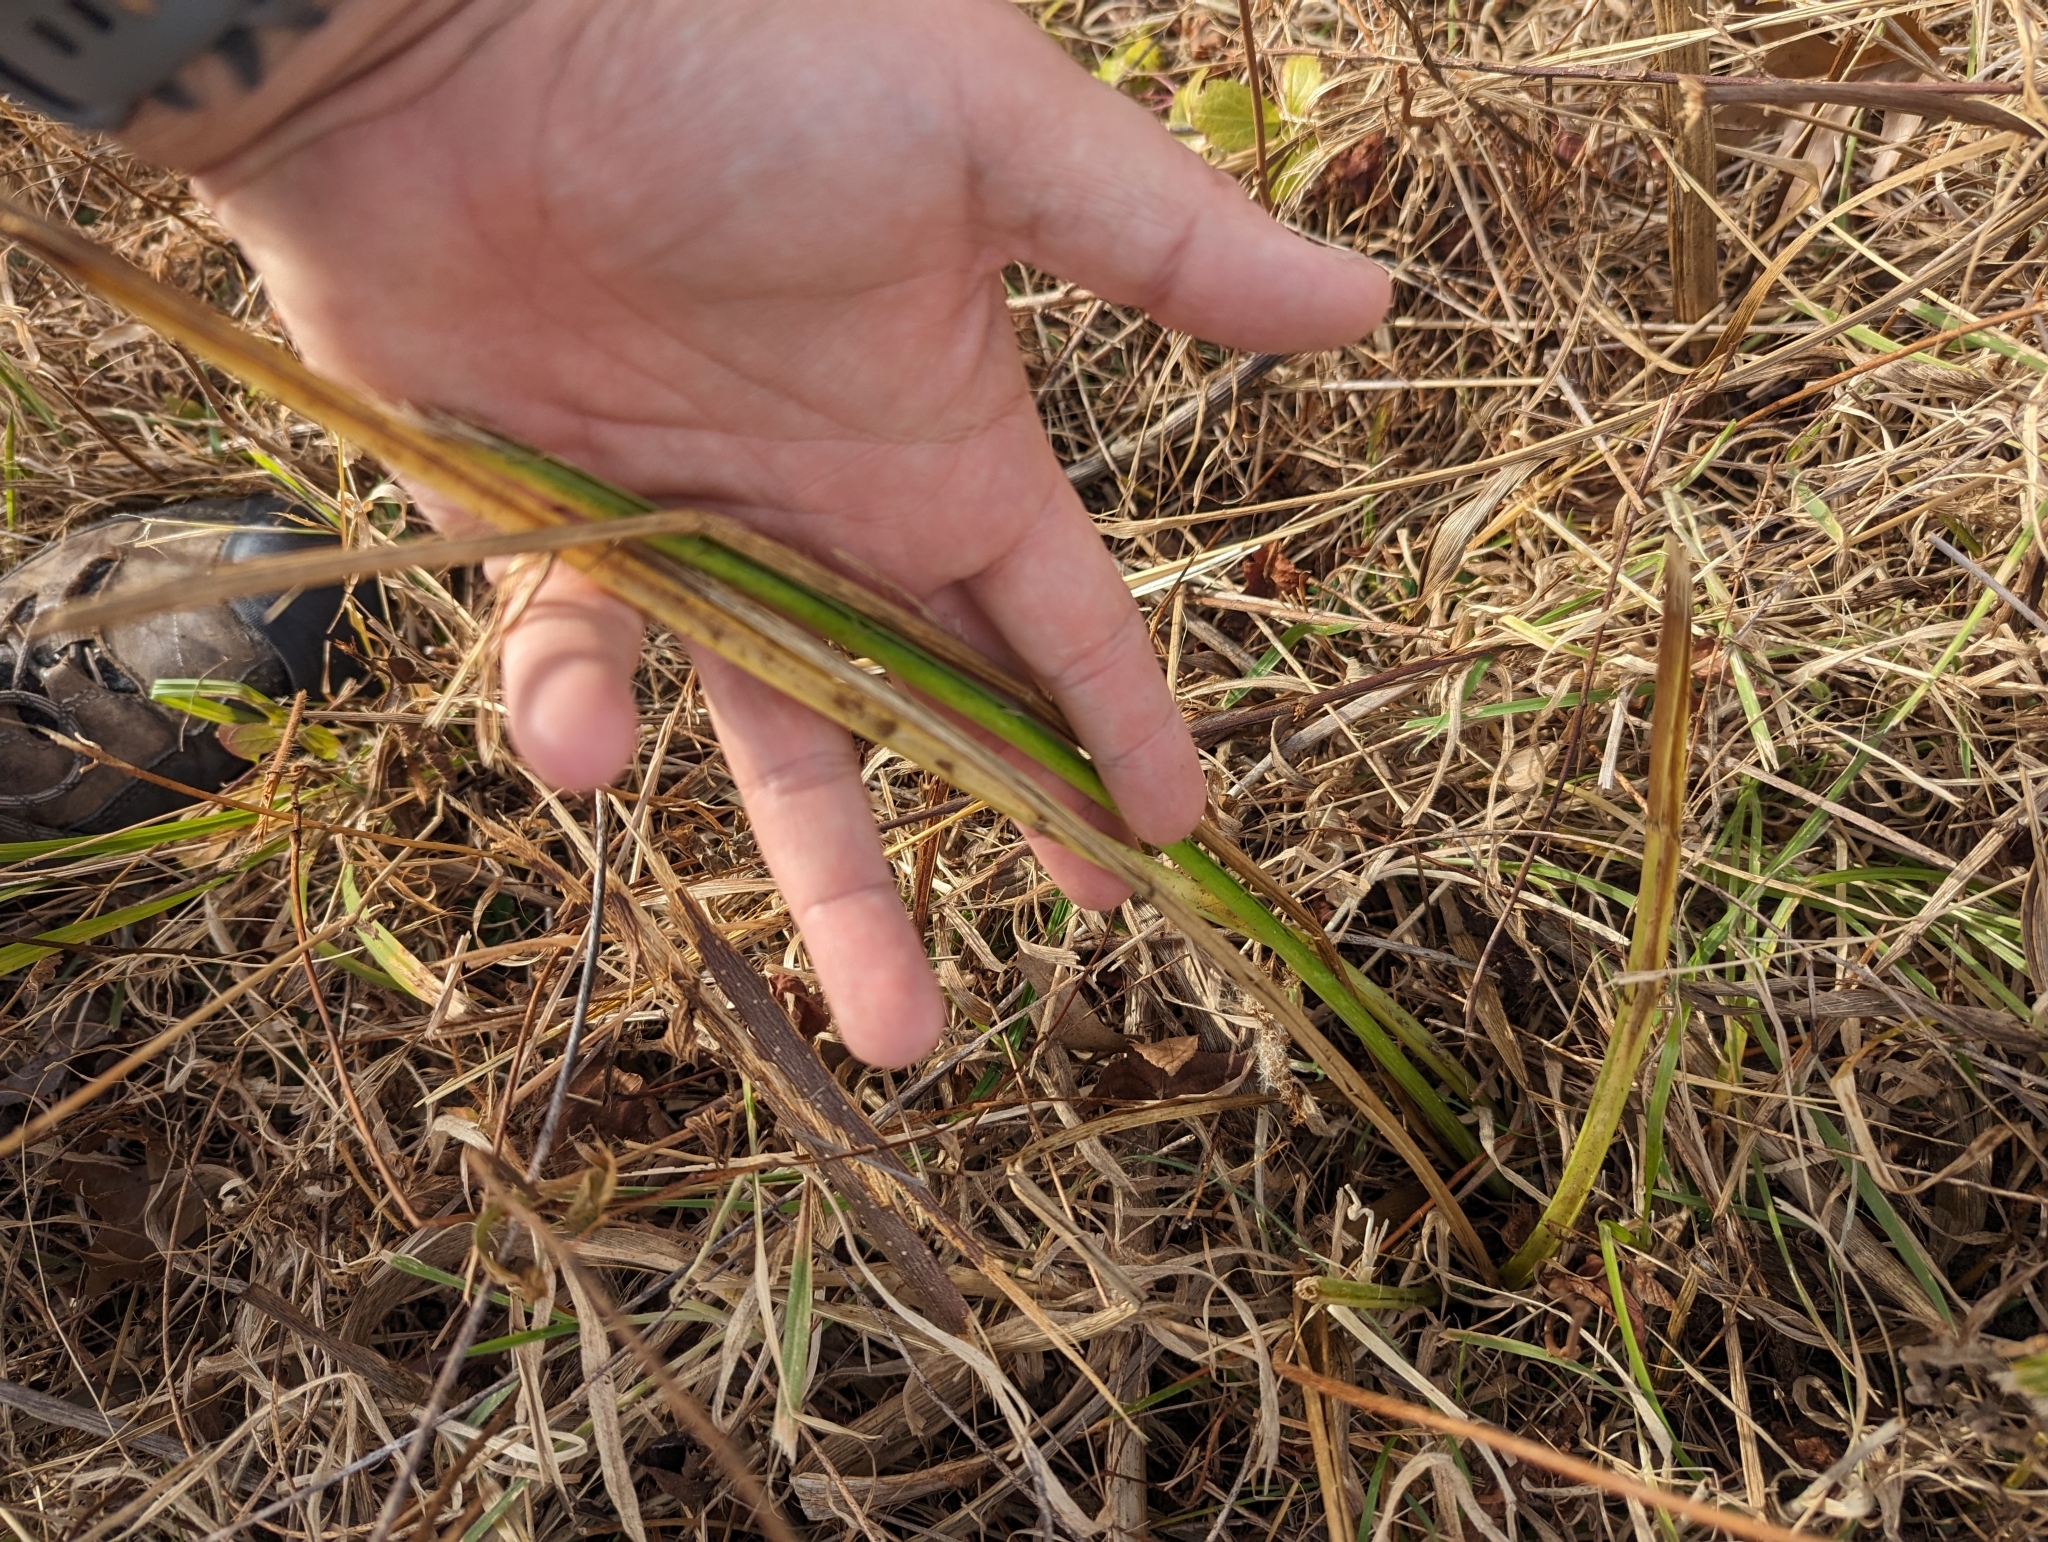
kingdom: Plantae
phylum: Tracheophyta
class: Magnoliopsida
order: Apiales
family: Apiaceae
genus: Eryngium
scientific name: Eryngium yuccifolium
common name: Button eryngo
